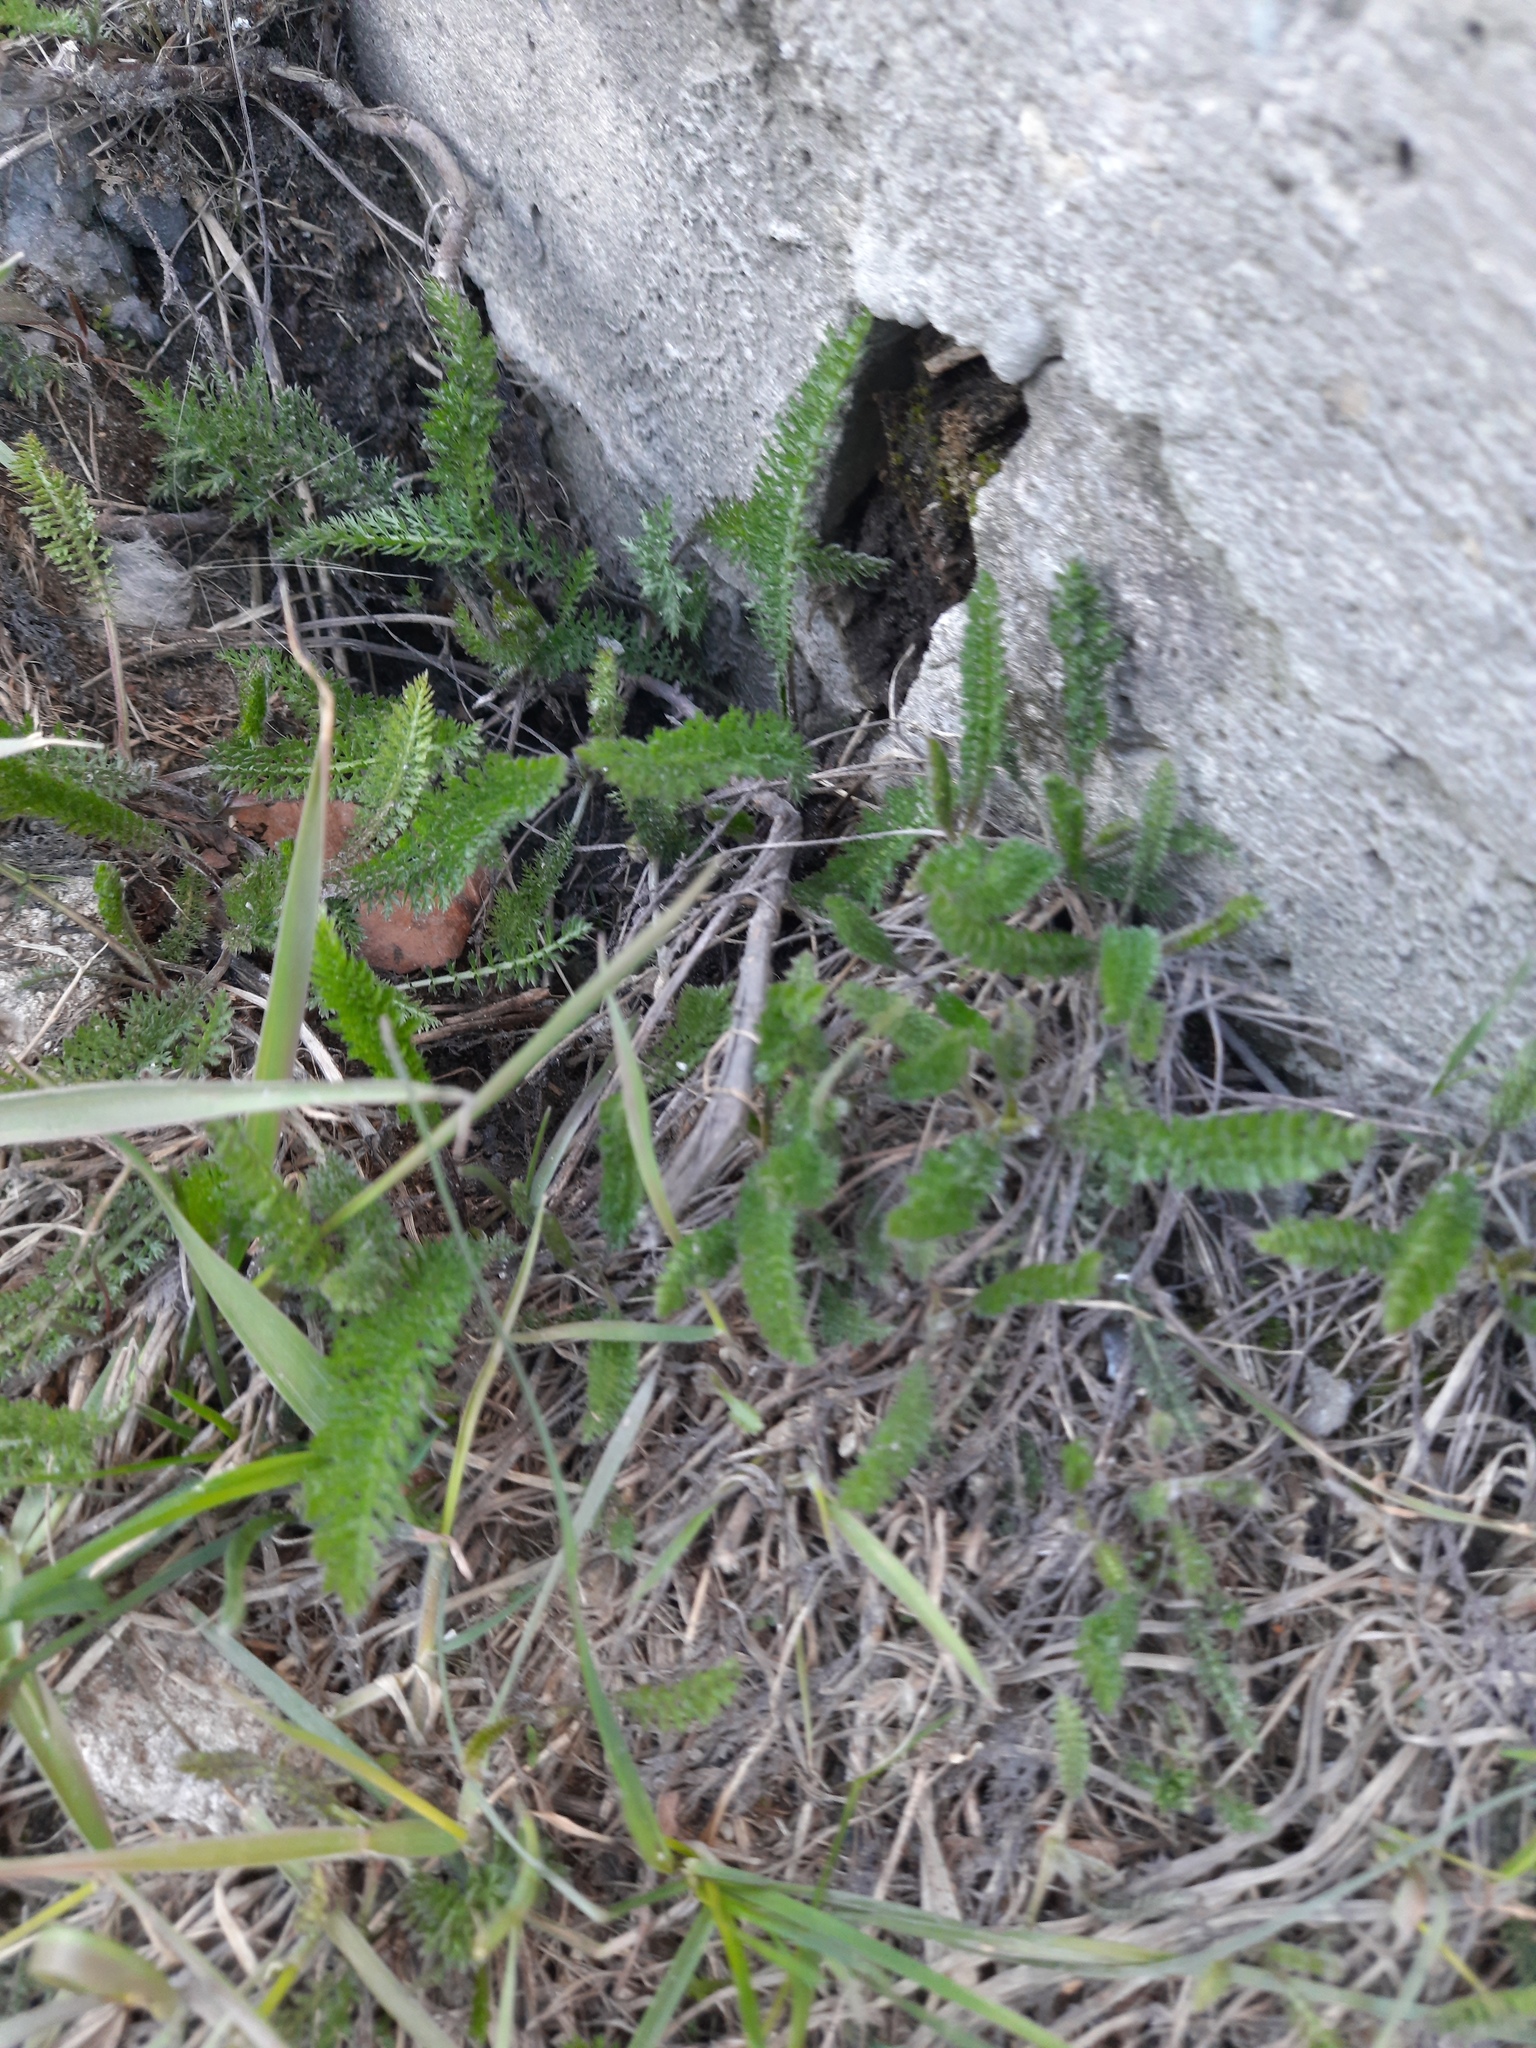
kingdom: Plantae
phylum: Tracheophyta
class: Magnoliopsida
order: Asterales
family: Asteraceae
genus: Achillea
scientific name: Achillea millefolium
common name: Yarrow
